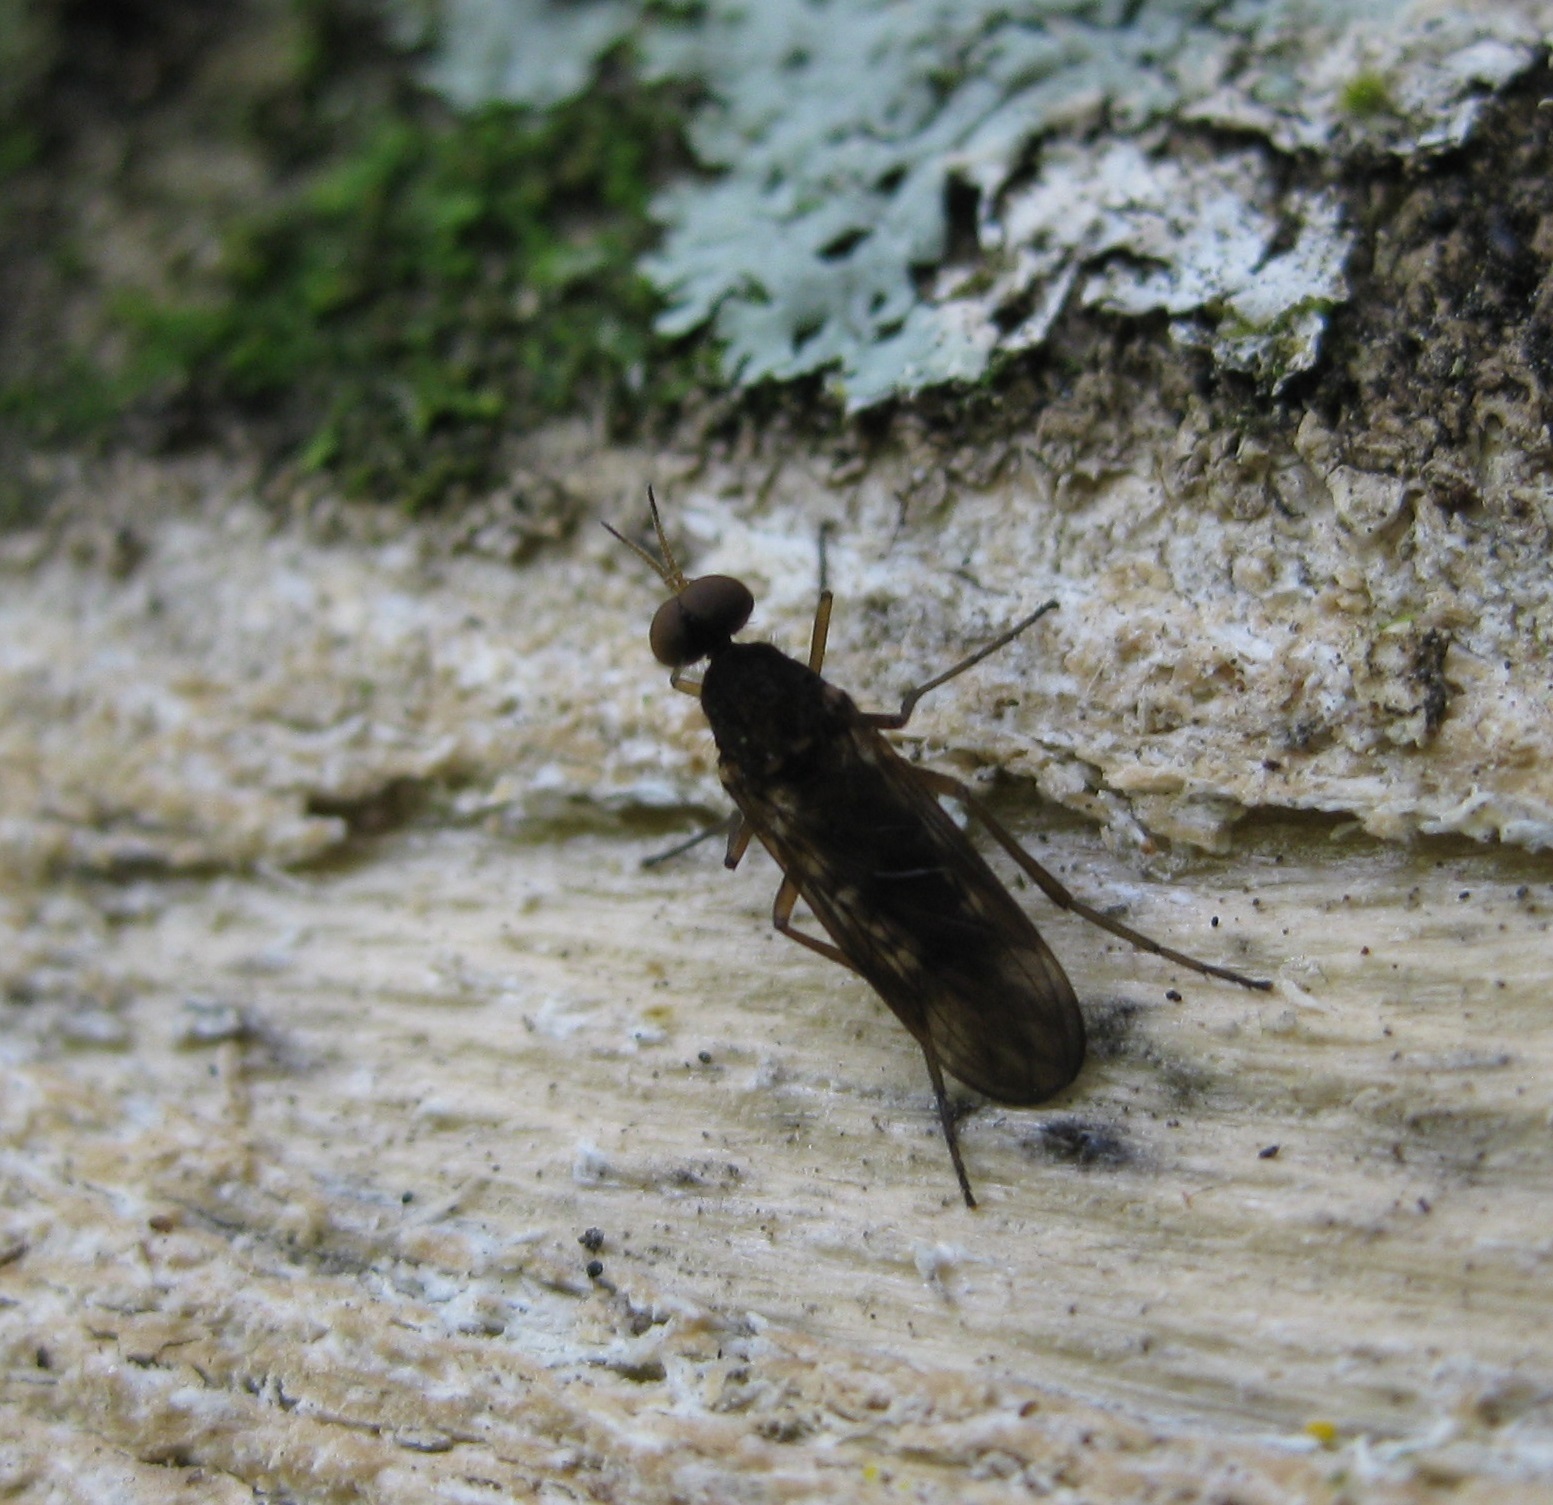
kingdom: Animalia
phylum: Arthropoda
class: Insecta
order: Diptera
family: Anisopodidae
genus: Sylvicola
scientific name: Sylvicola neozelandicus
